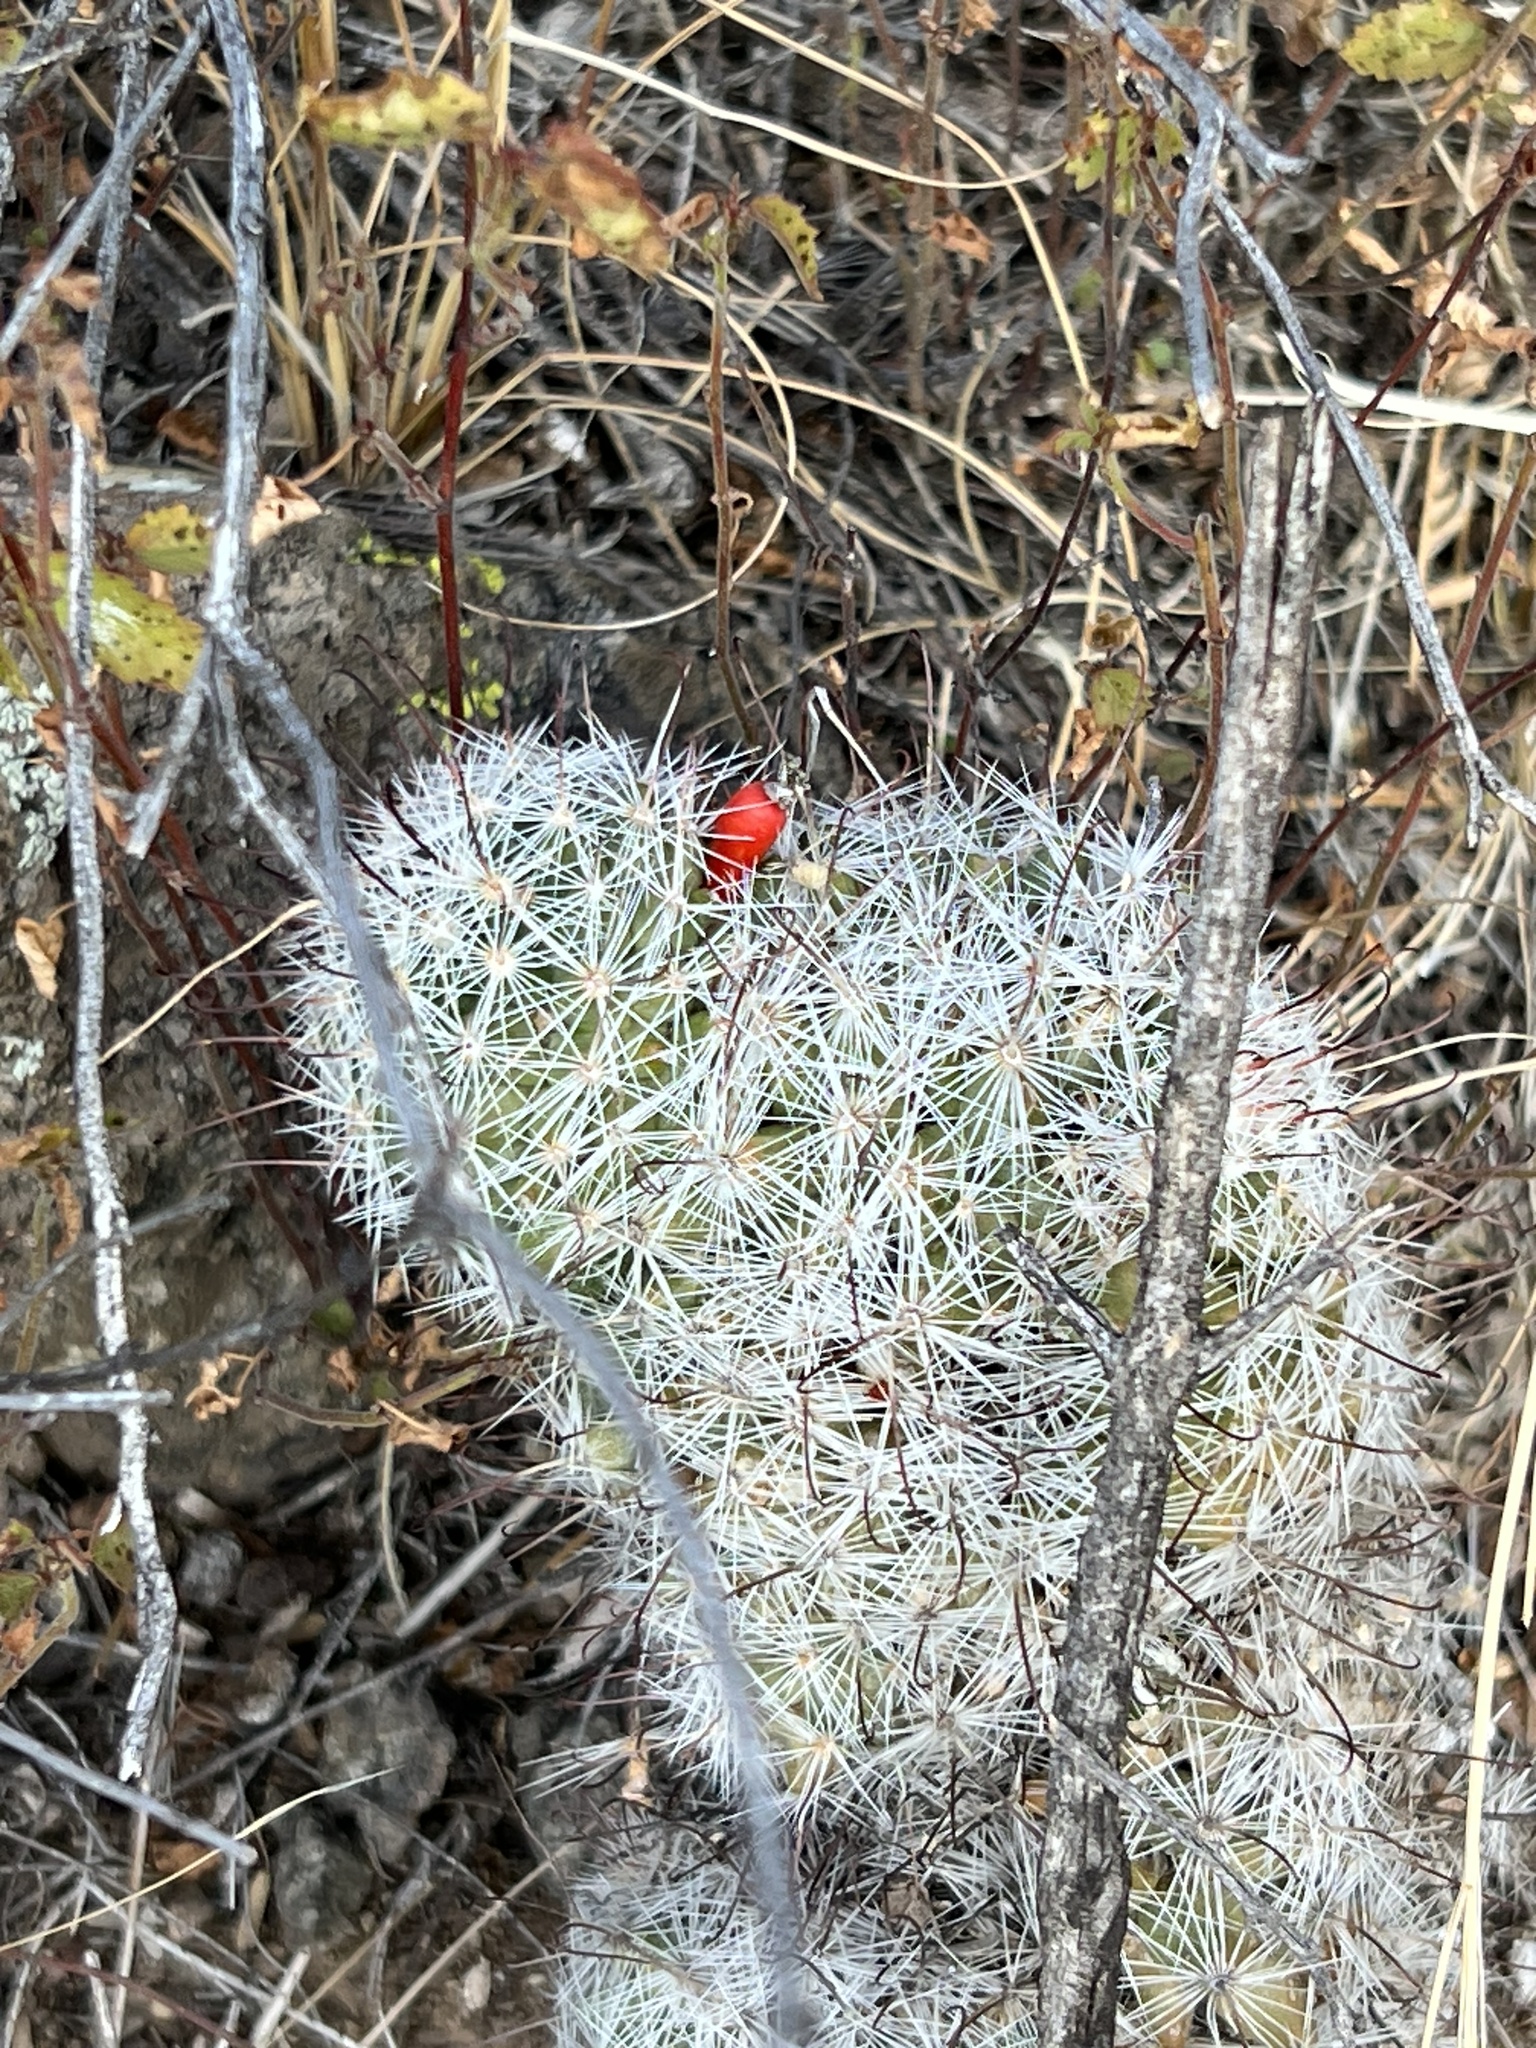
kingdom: Plantae
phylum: Tracheophyta
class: Magnoliopsida
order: Caryophyllales
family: Cactaceae
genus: Cochemiea
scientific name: Cochemiea grahamii
